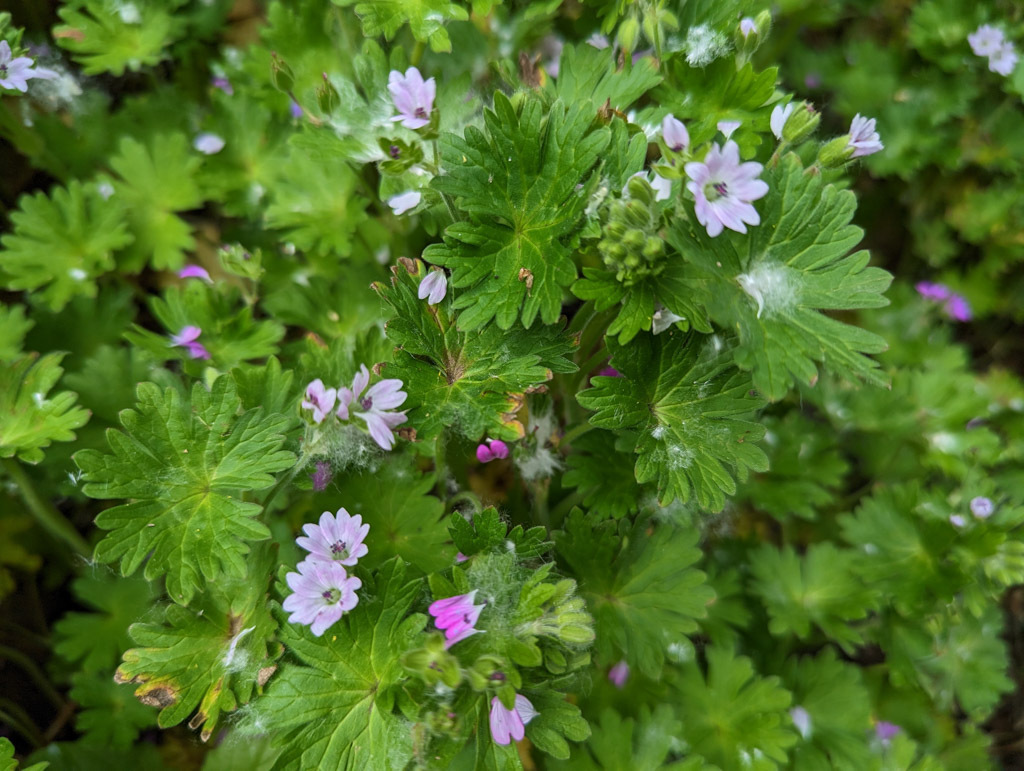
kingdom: Plantae
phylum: Tracheophyta
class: Magnoliopsida
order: Geraniales
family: Geraniaceae
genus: Geranium
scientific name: Geranium molle
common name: Dove's-foot crane's-bill
